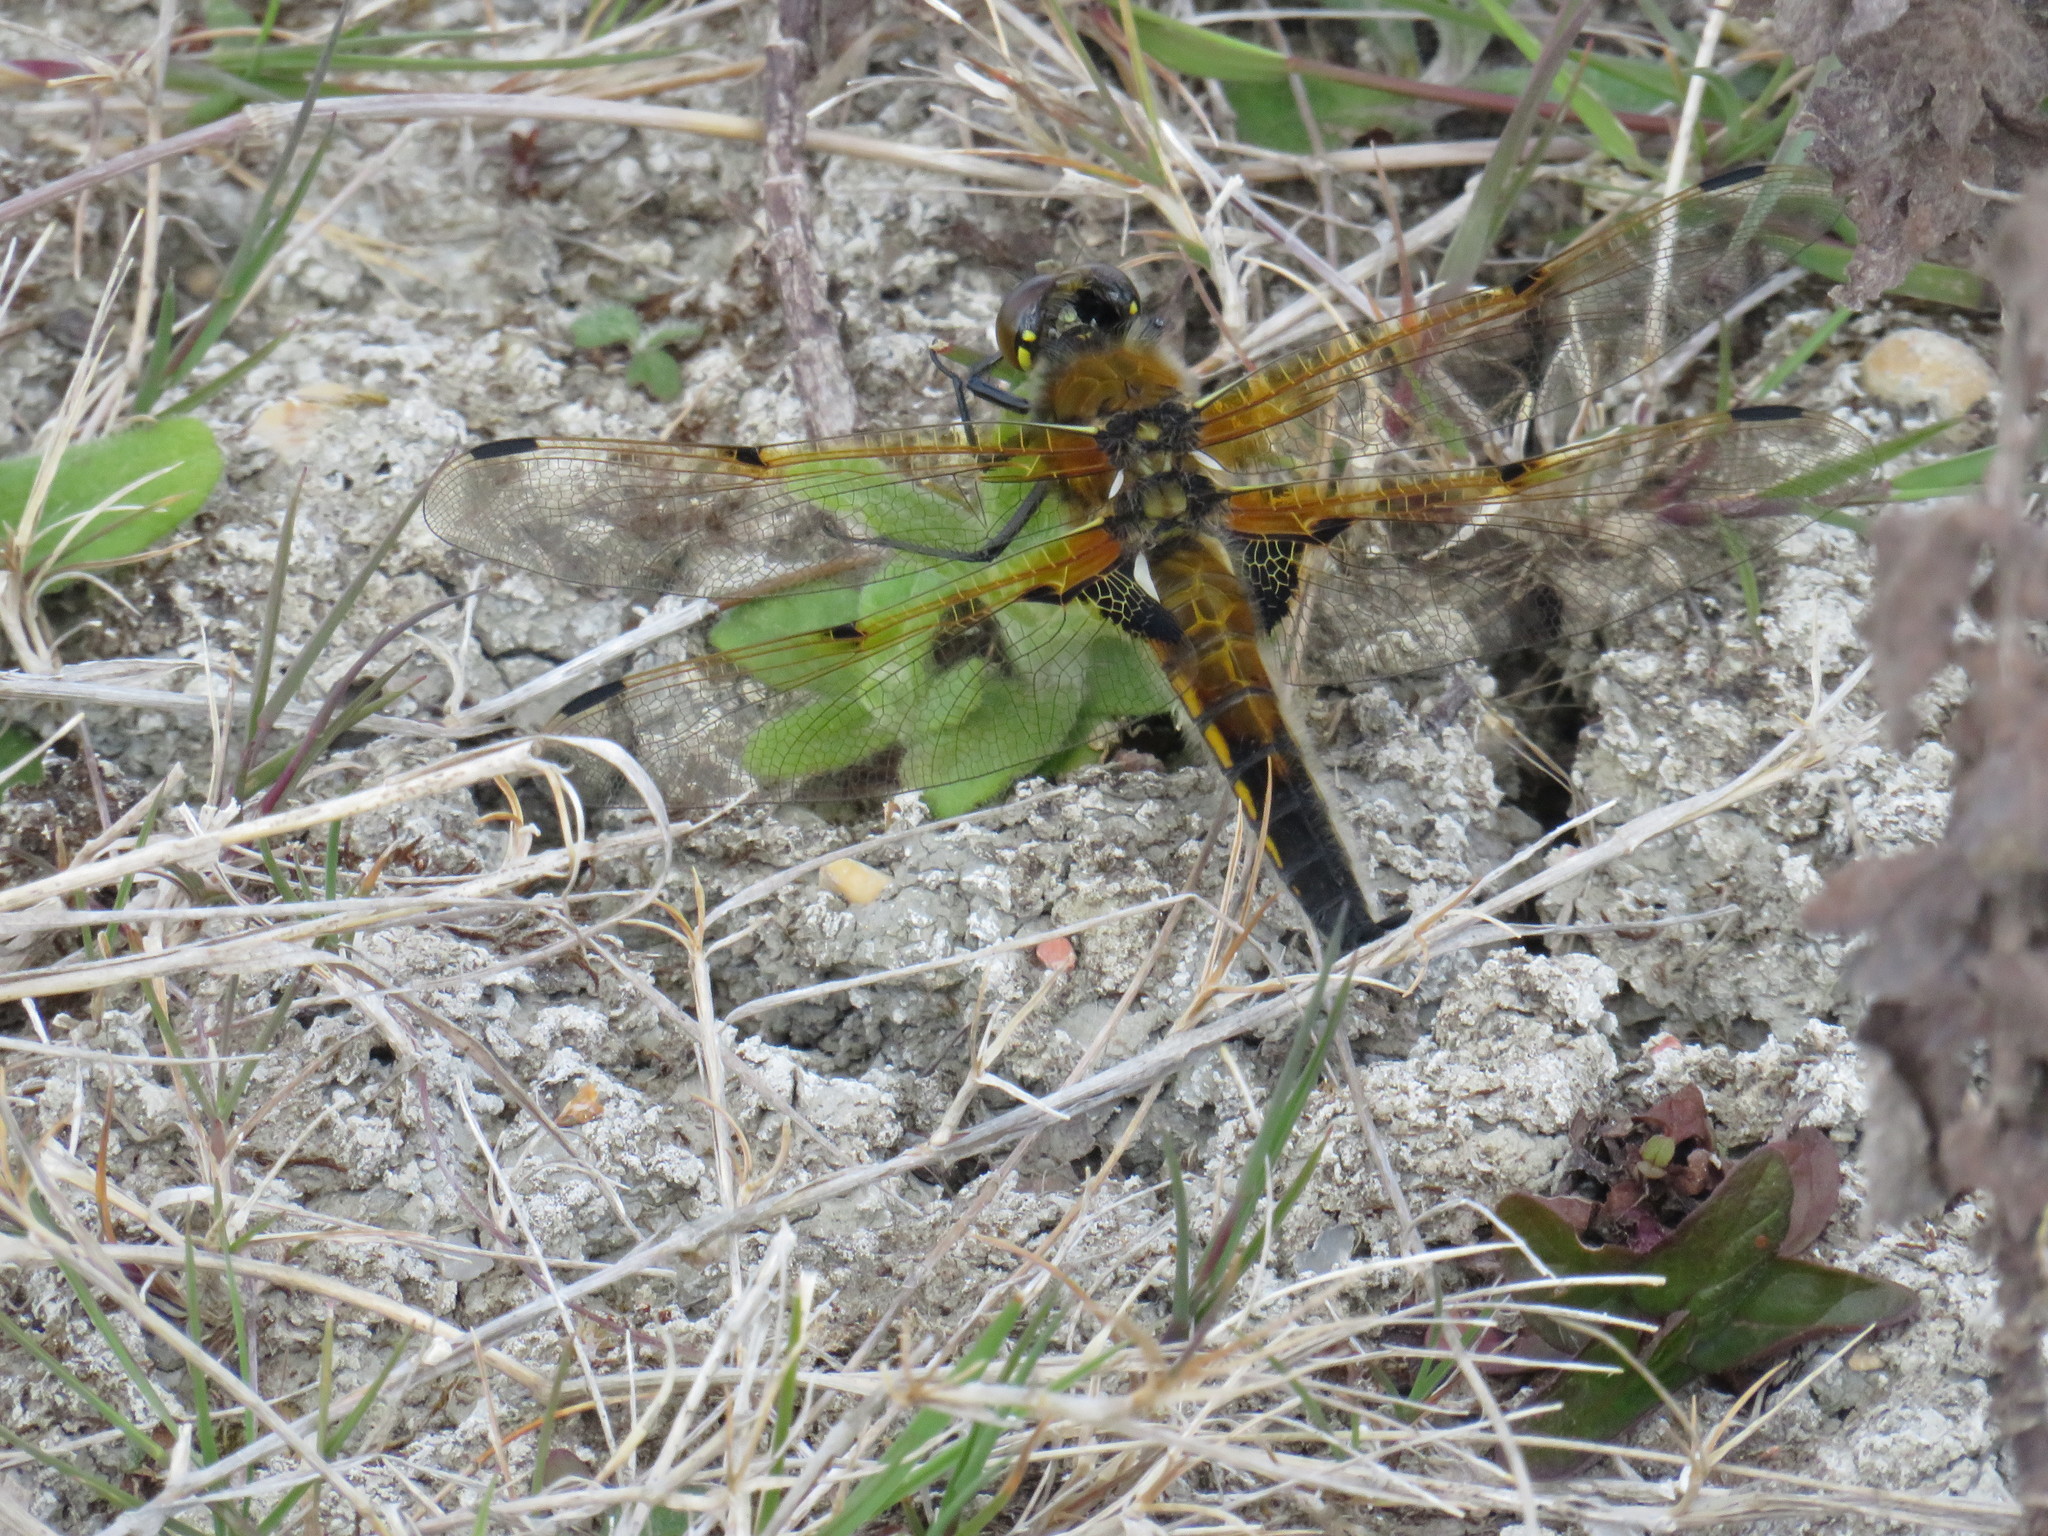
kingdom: Animalia
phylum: Arthropoda
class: Insecta
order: Odonata
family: Libellulidae
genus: Libellula
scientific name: Libellula quadrimaculata
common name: Four-spotted chaser
